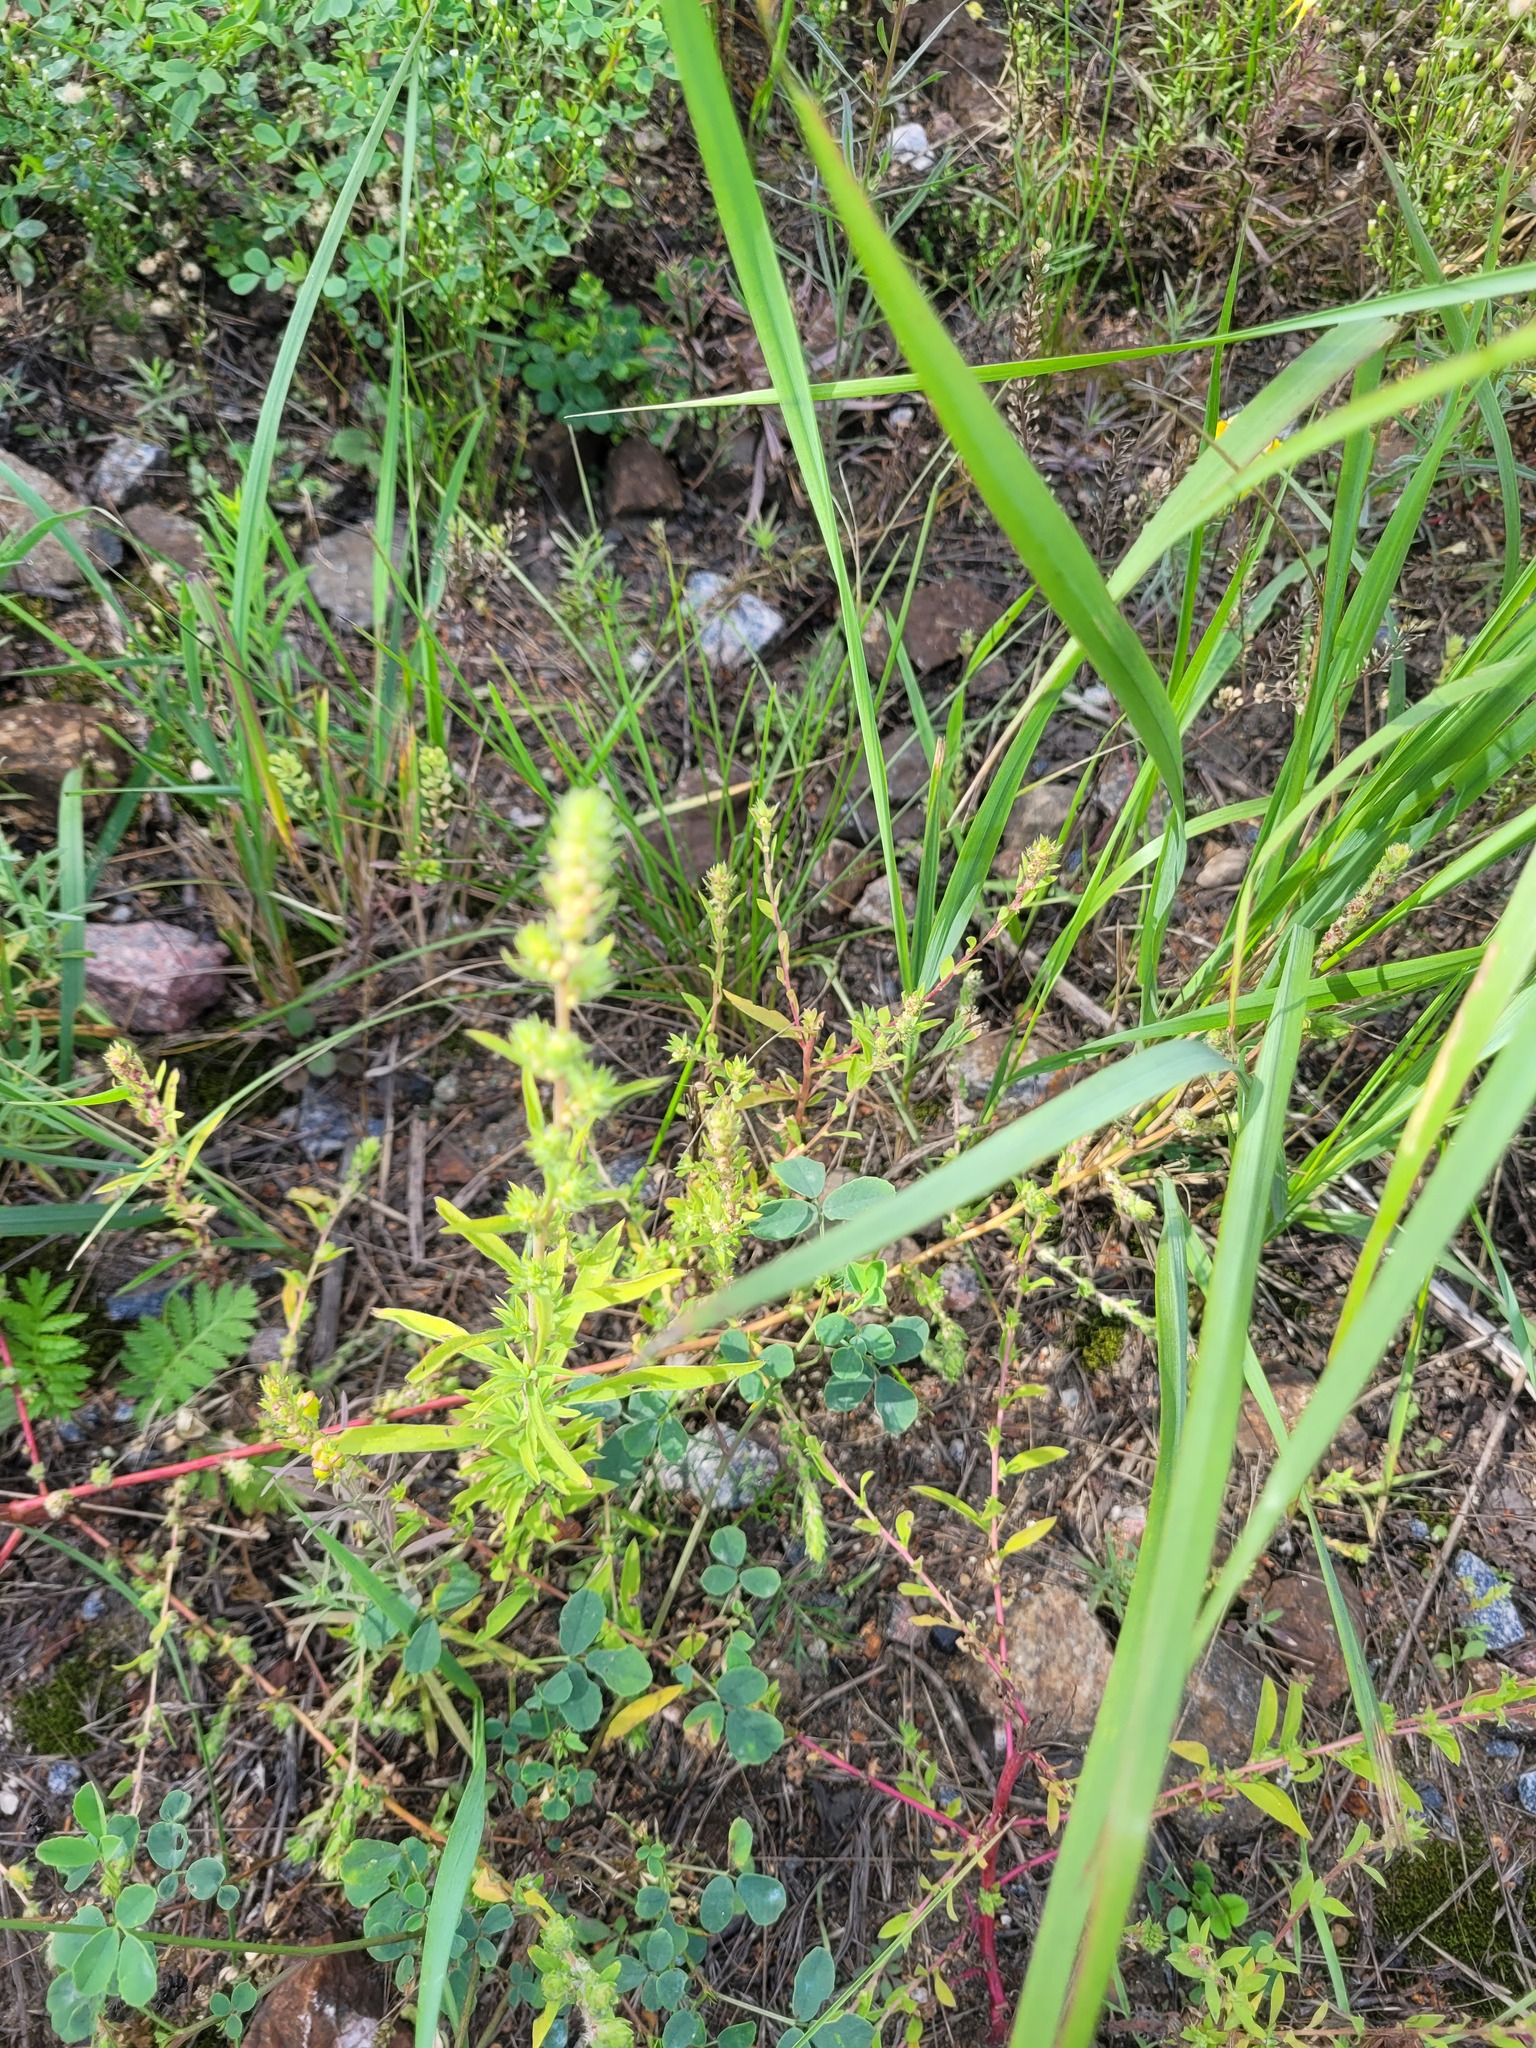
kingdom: Plantae
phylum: Tracheophyta
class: Magnoliopsida
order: Caryophyllales
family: Amaranthaceae
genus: Bassia
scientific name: Bassia scoparia
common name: Belvedere
